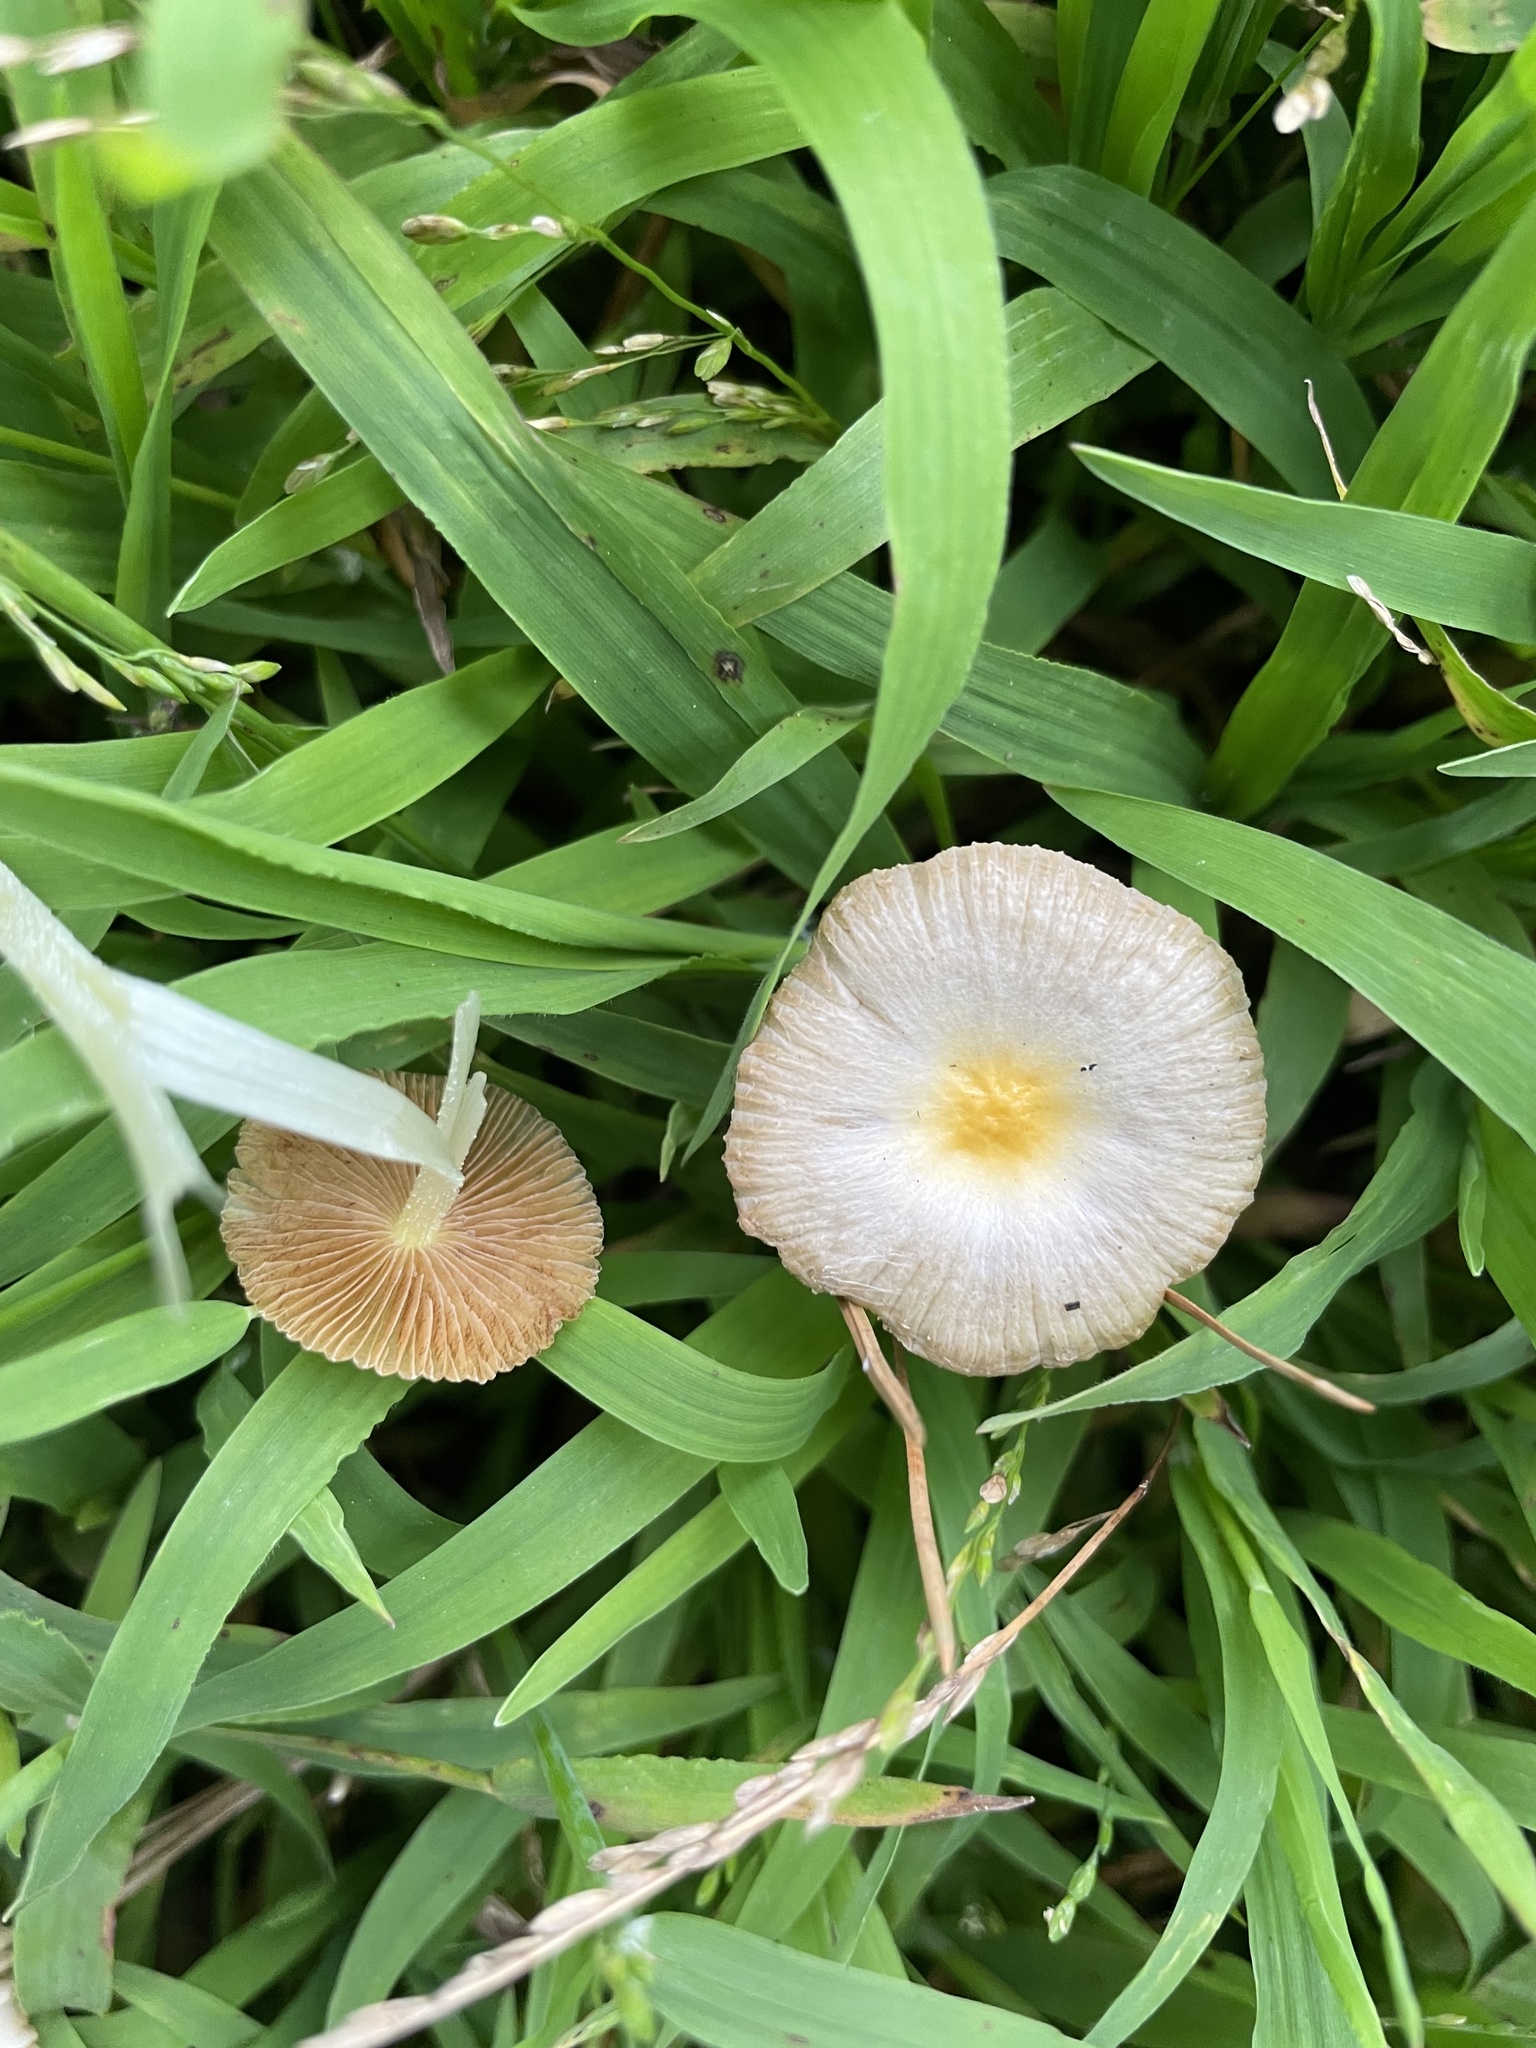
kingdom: Fungi
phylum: Basidiomycota
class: Agaricomycetes
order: Agaricales
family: Bolbitiaceae
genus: Bolbitius
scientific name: Bolbitius titubans
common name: Yellow fieldcap
